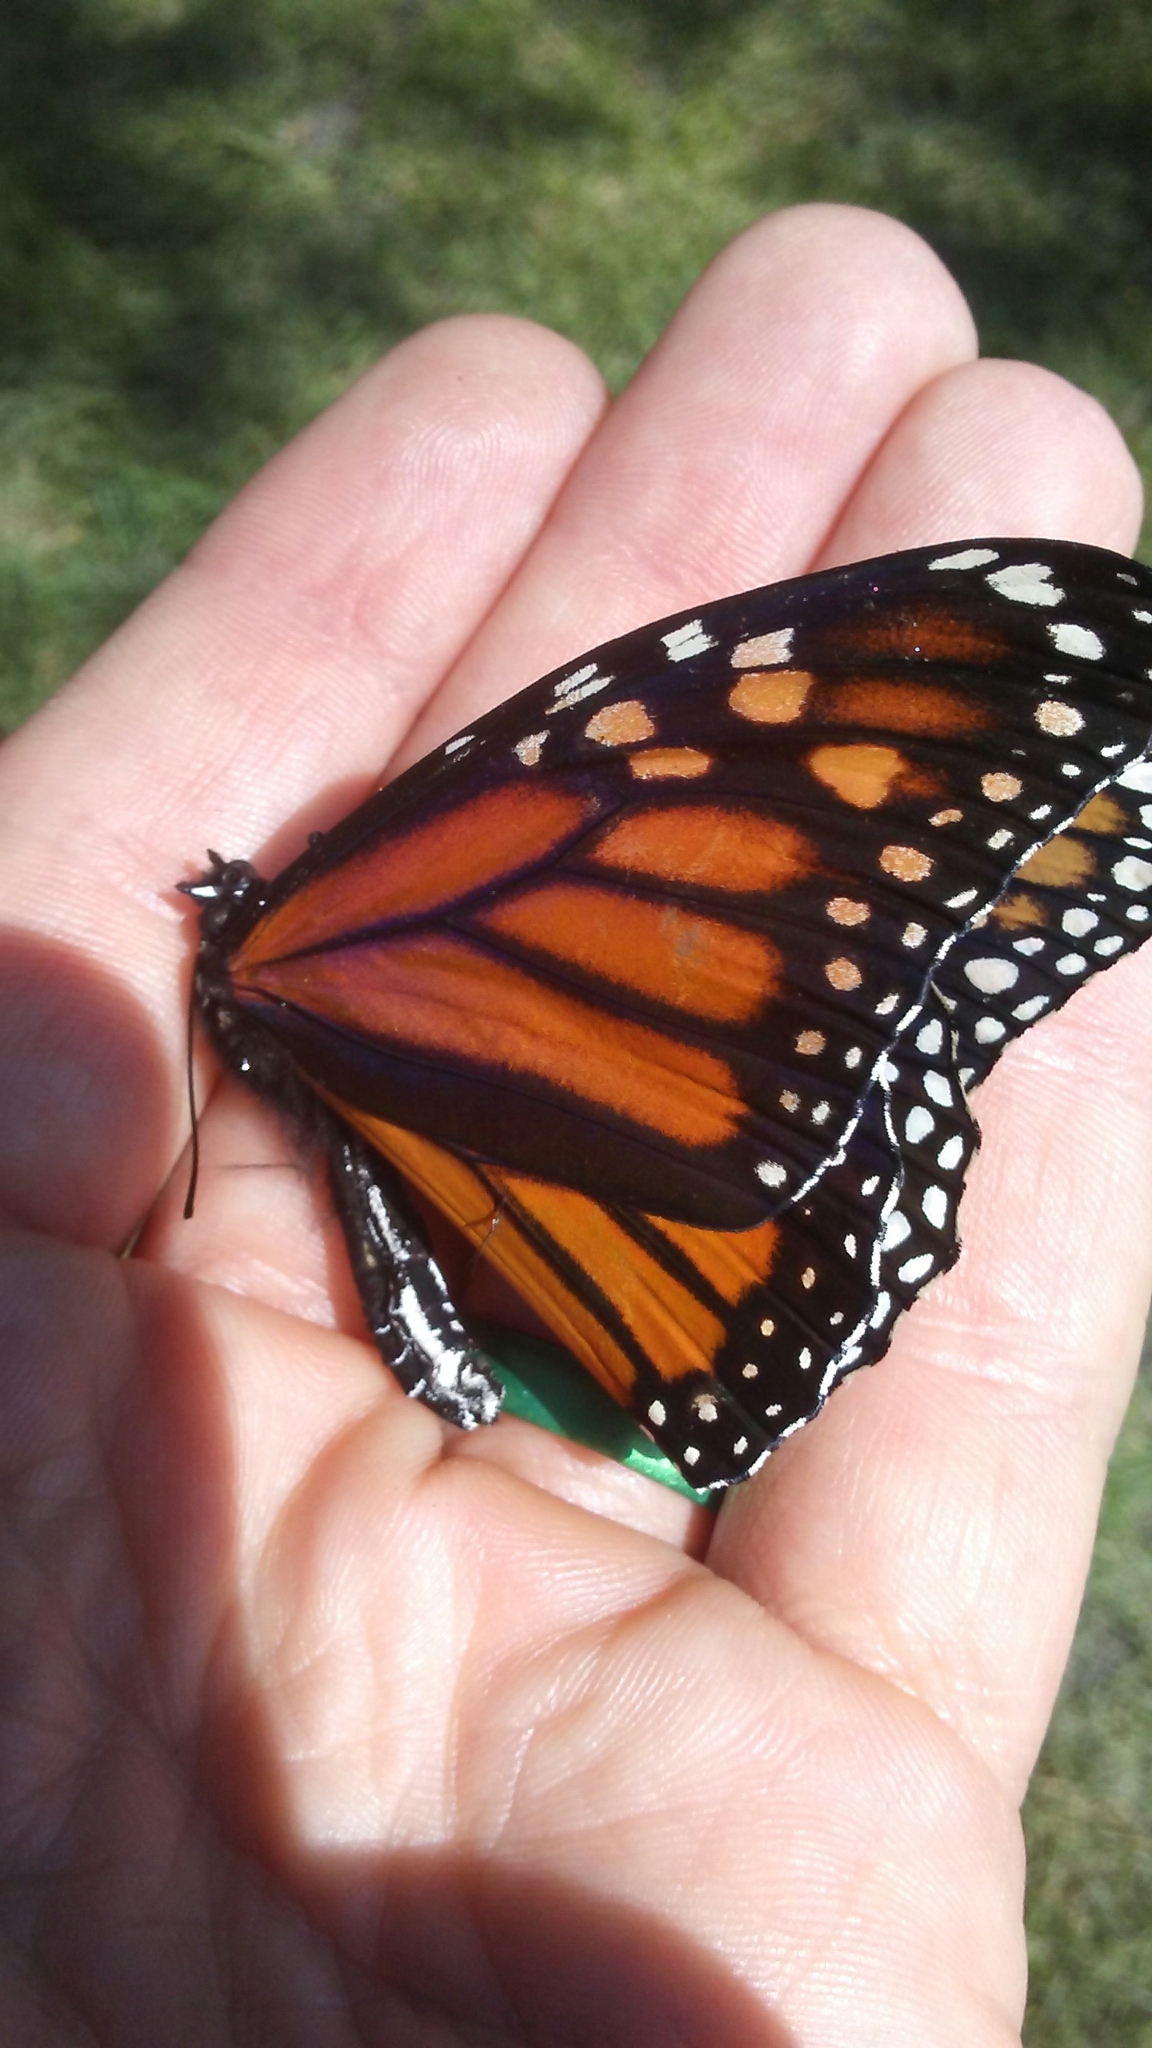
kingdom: Animalia
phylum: Arthropoda
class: Insecta
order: Lepidoptera
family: Nymphalidae
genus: Danaus
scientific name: Danaus plexippus
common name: Monarch
